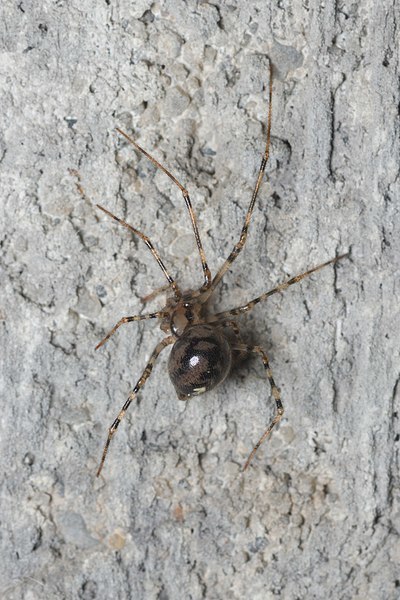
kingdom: Animalia
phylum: Arthropoda
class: Arachnida
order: Araneae
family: Nesticidae
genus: Nesticus
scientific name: Nesticus cellulanus
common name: Comb-footed cellar spider
